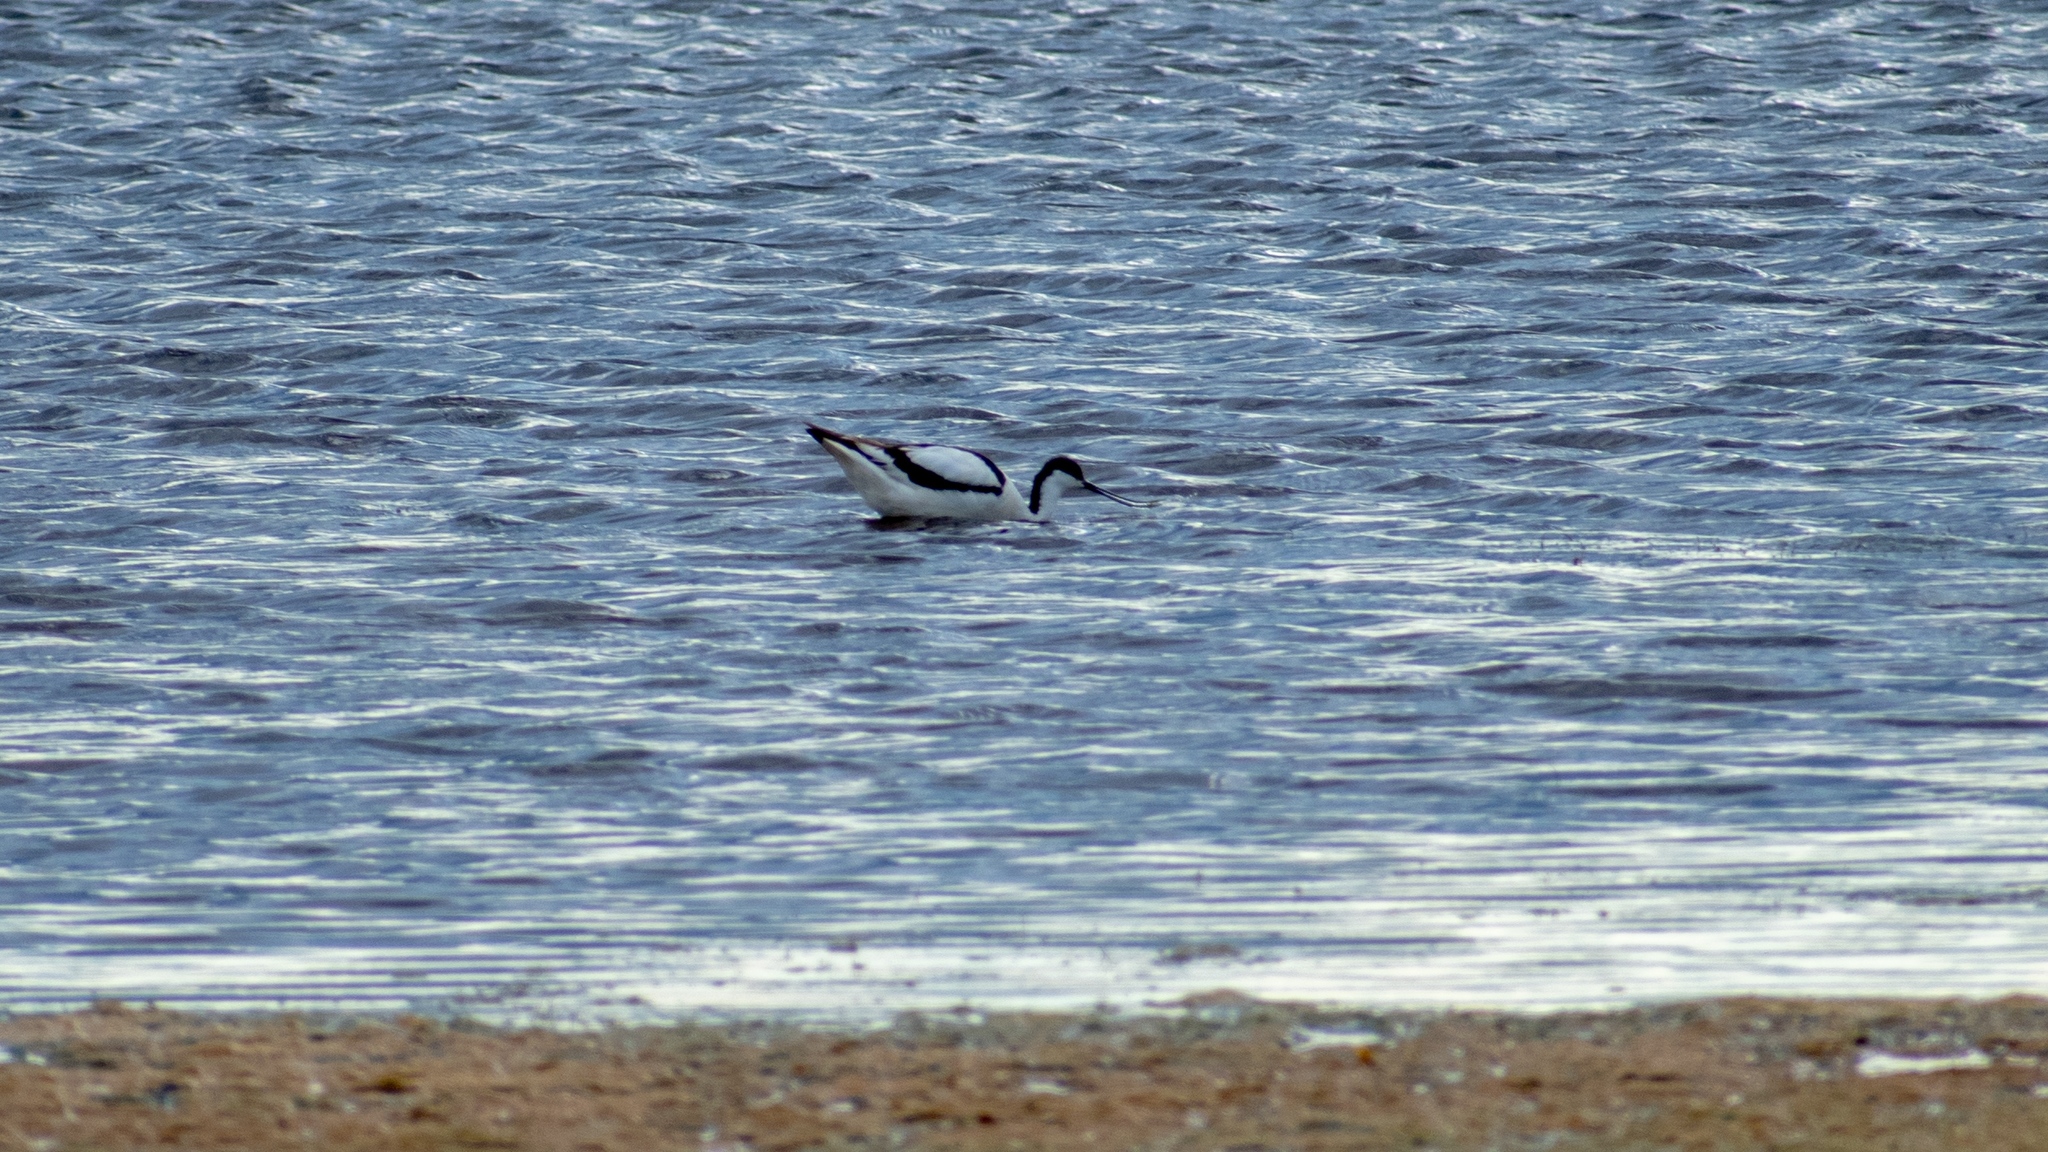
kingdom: Animalia
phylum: Chordata
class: Aves
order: Charadriiformes
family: Recurvirostridae
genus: Recurvirostra
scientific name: Recurvirostra avosetta
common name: Pied avocet
